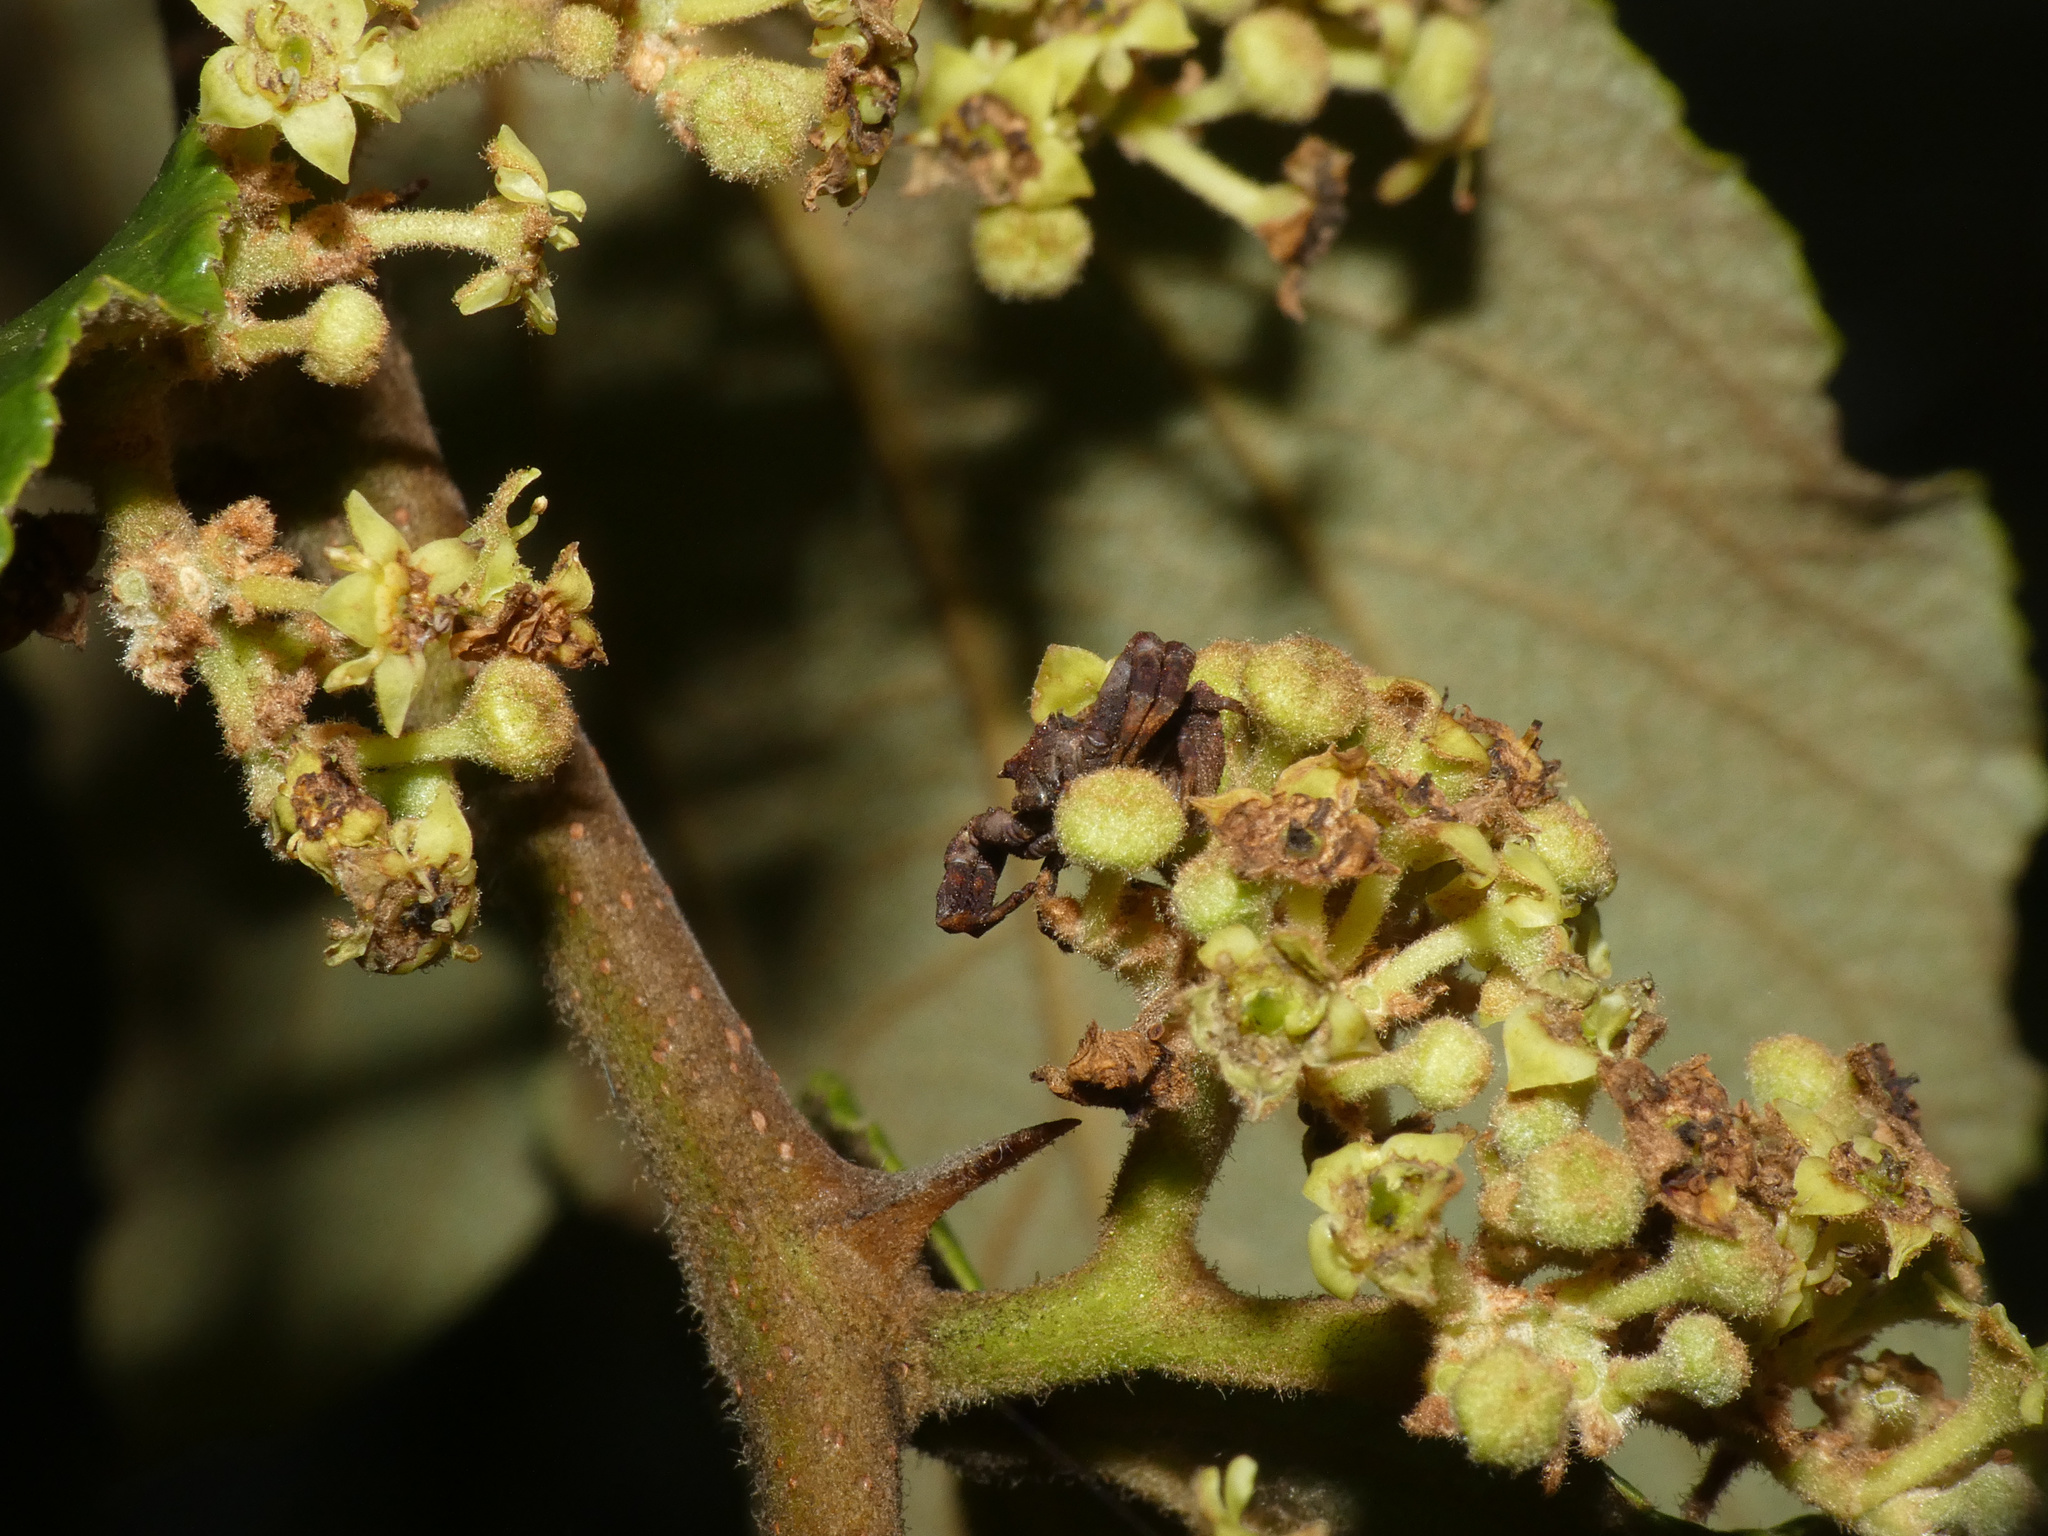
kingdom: Animalia
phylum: Arthropoda
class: Arachnida
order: Araneae
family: Thomisidae
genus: Thomisus
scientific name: Thomisus scrupeus
